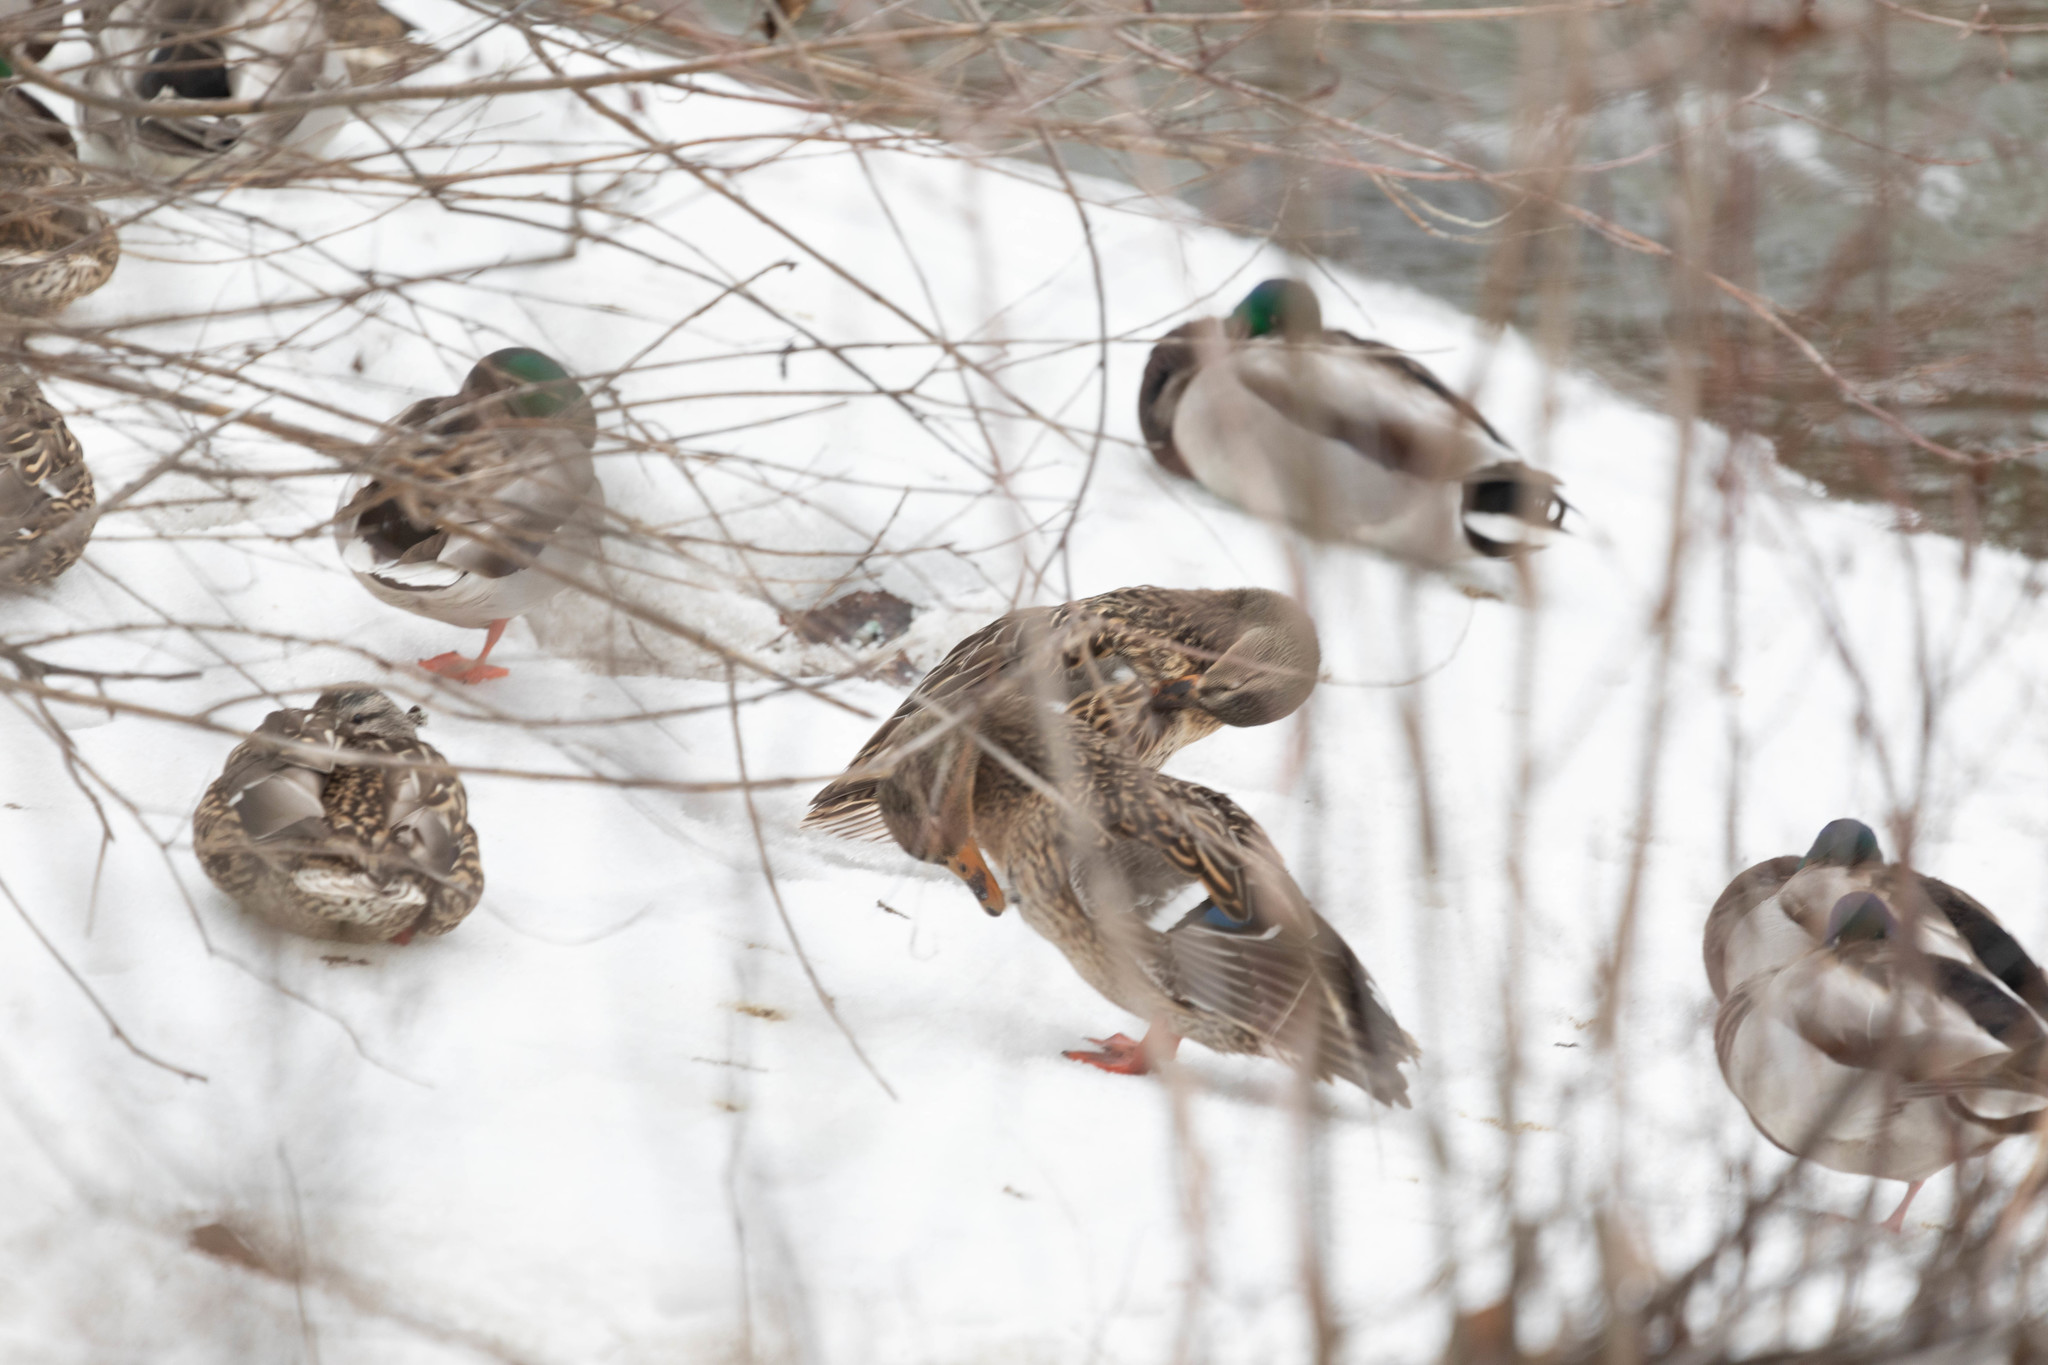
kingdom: Animalia
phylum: Chordata
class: Aves
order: Anseriformes
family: Anatidae
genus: Anas
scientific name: Anas platyrhynchos
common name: Mallard
